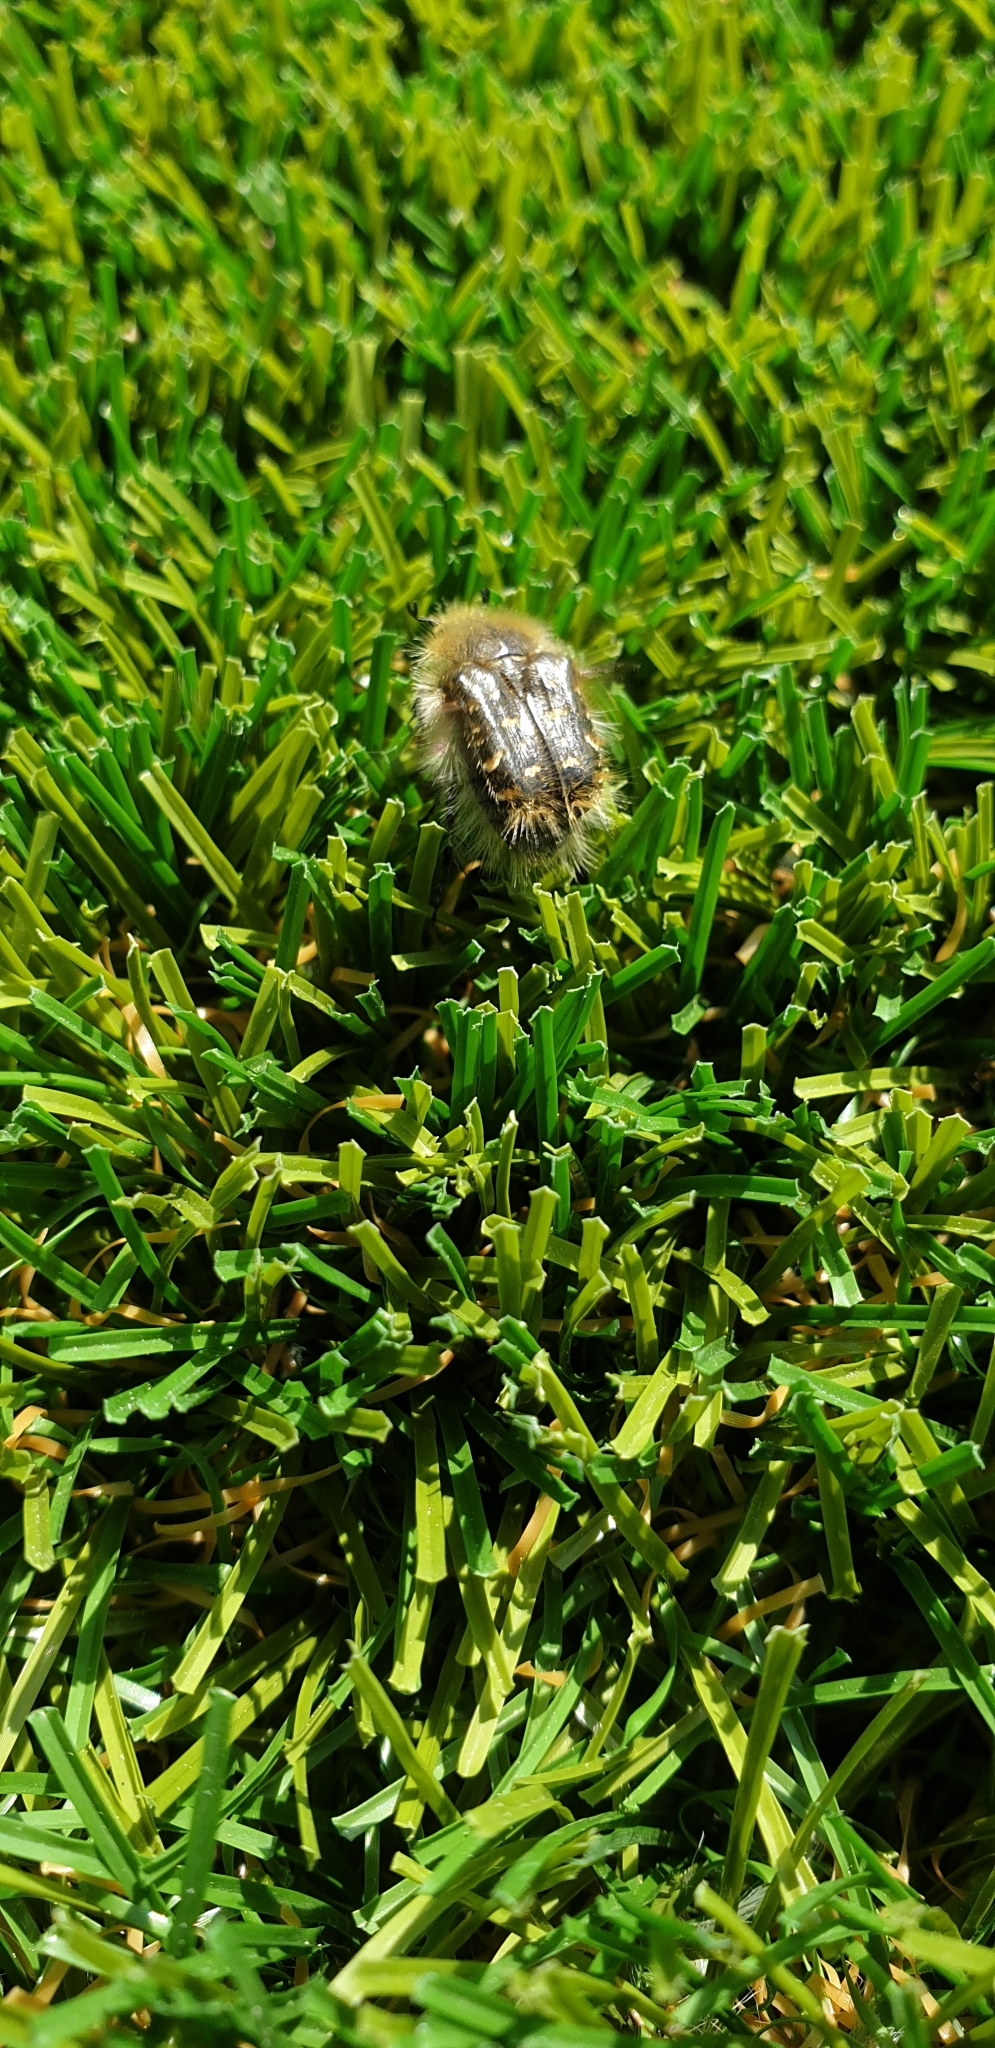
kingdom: Animalia
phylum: Arthropoda
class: Insecta
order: Coleoptera
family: Scarabaeidae
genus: Tropinota
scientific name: Tropinota squalida
